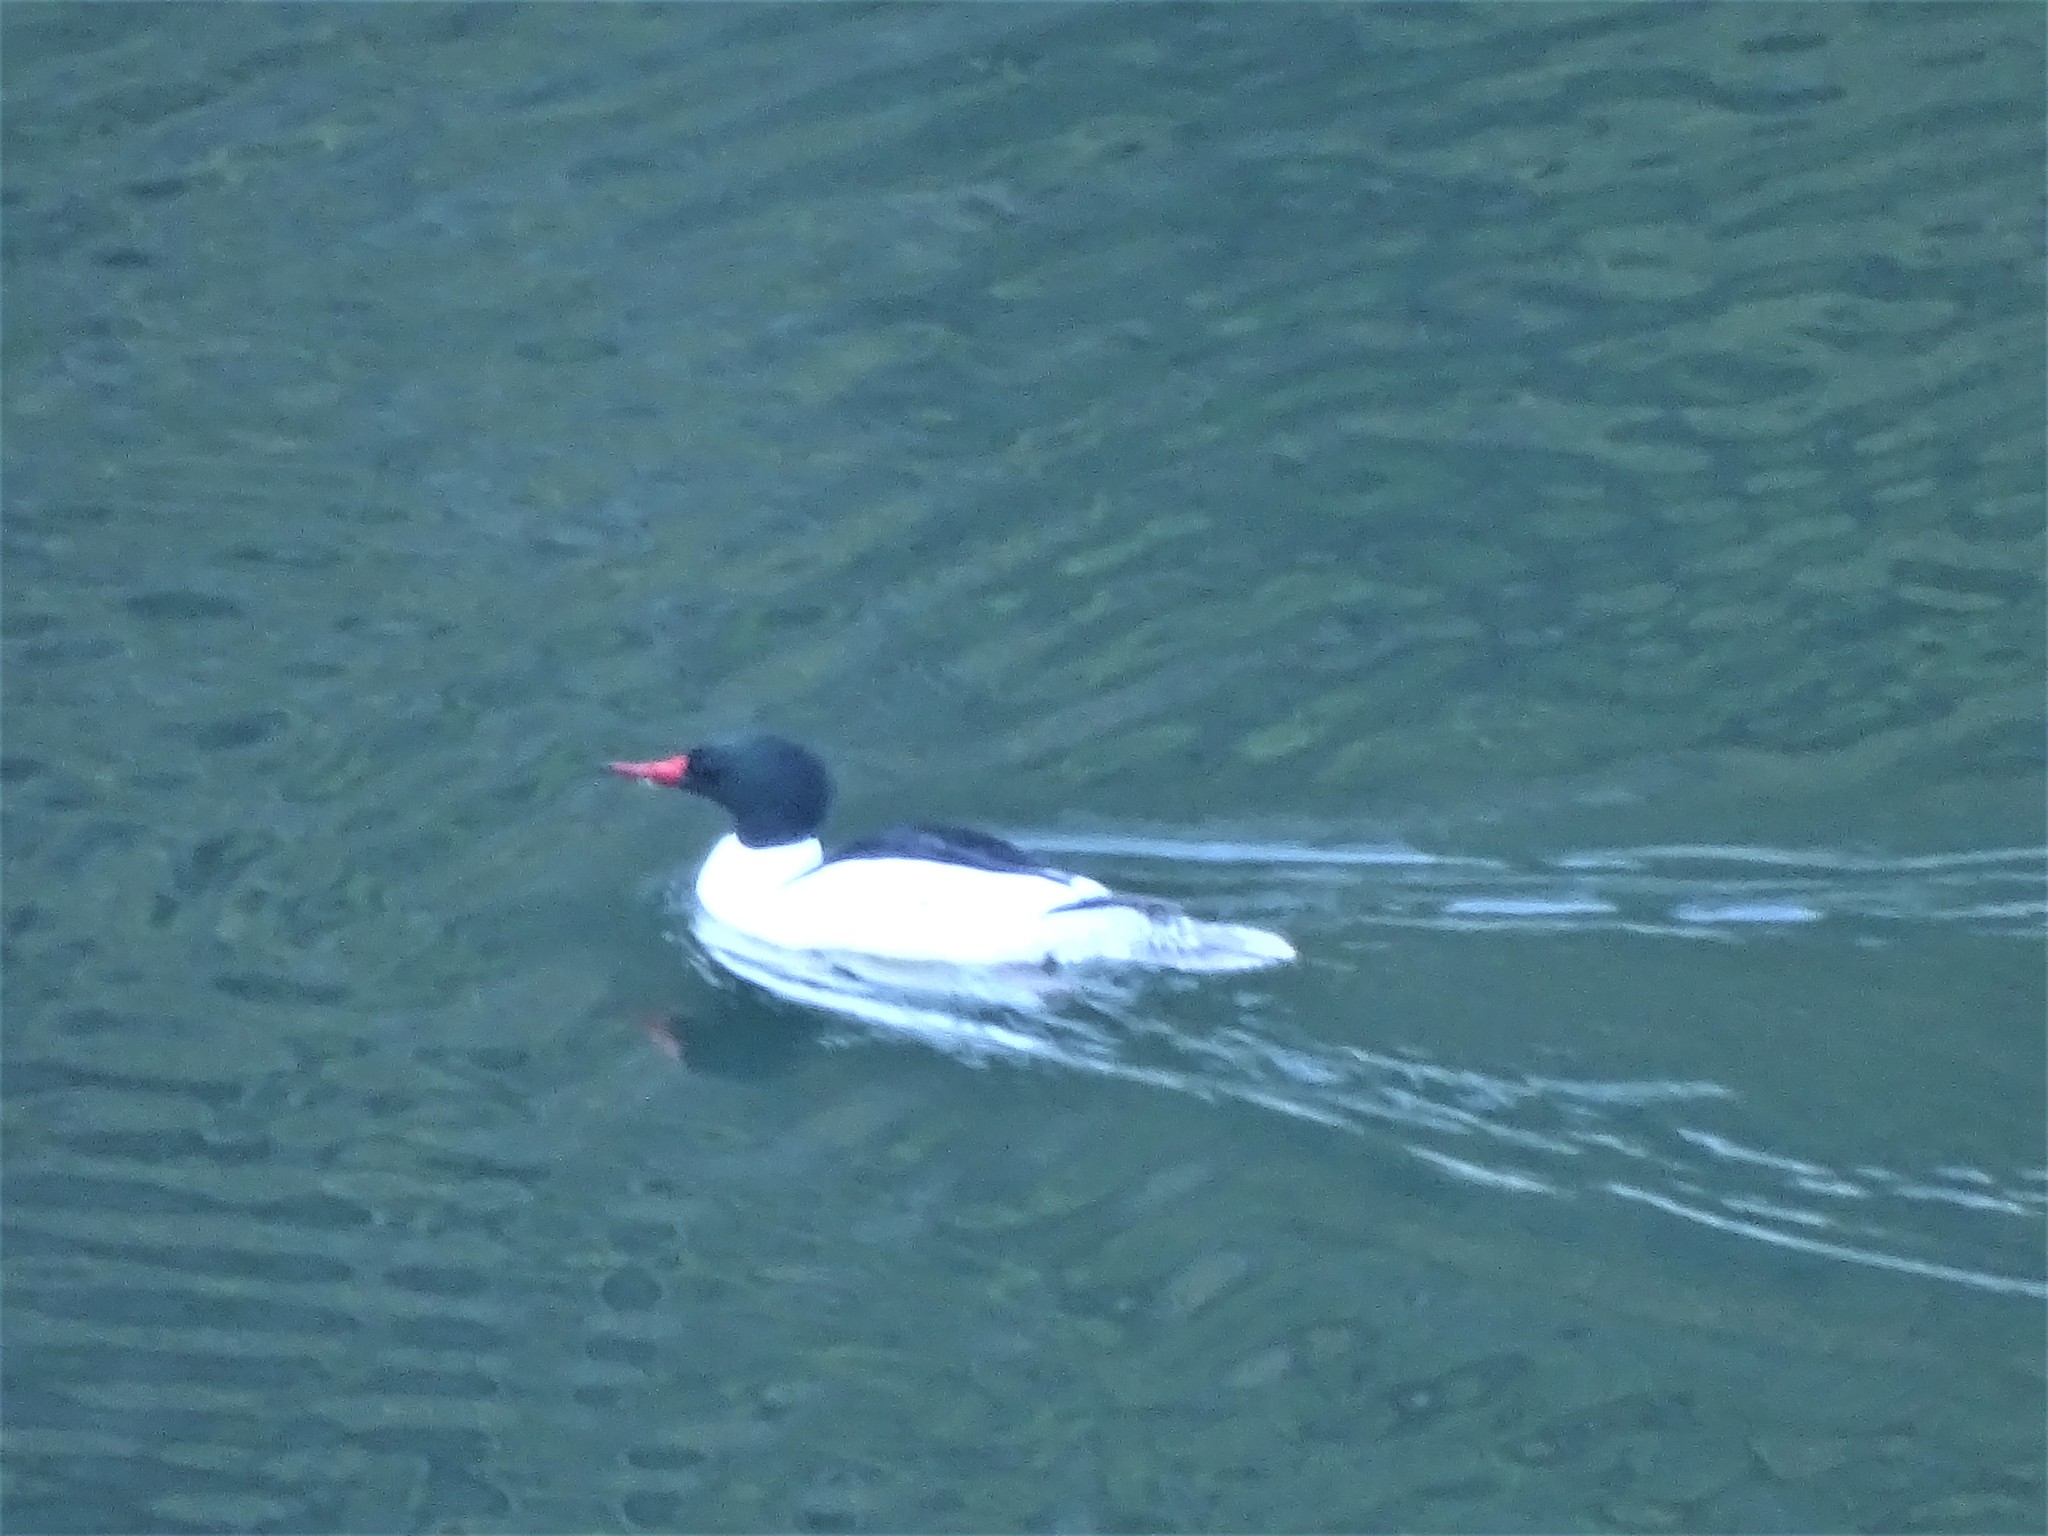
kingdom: Animalia
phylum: Chordata
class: Aves
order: Anseriformes
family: Anatidae
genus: Mergus
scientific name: Mergus merganser
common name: Common merganser
